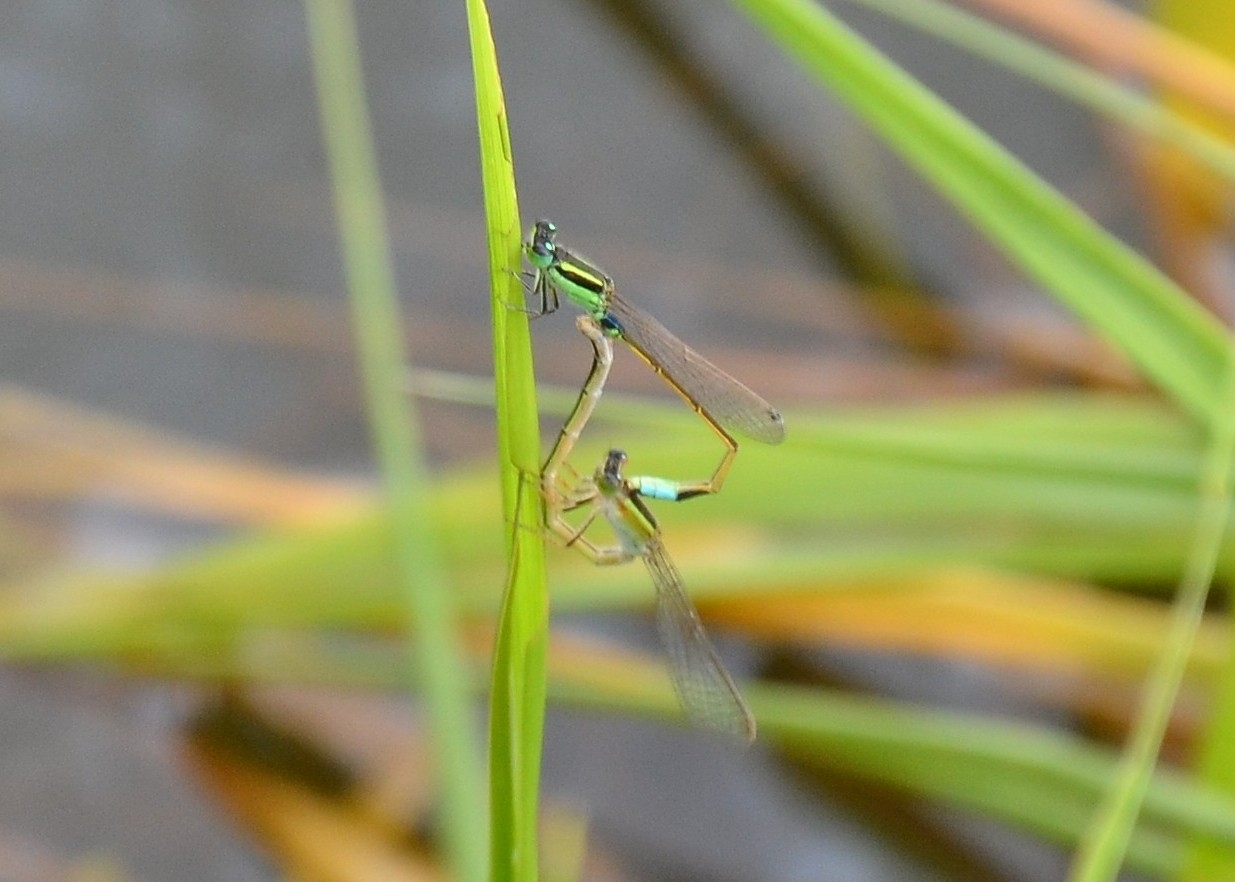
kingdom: Animalia
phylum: Arthropoda
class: Insecta
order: Odonata
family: Coenagrionidae
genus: Ischnura
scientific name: Ischnura senegalensis
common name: Tropical bluetail
